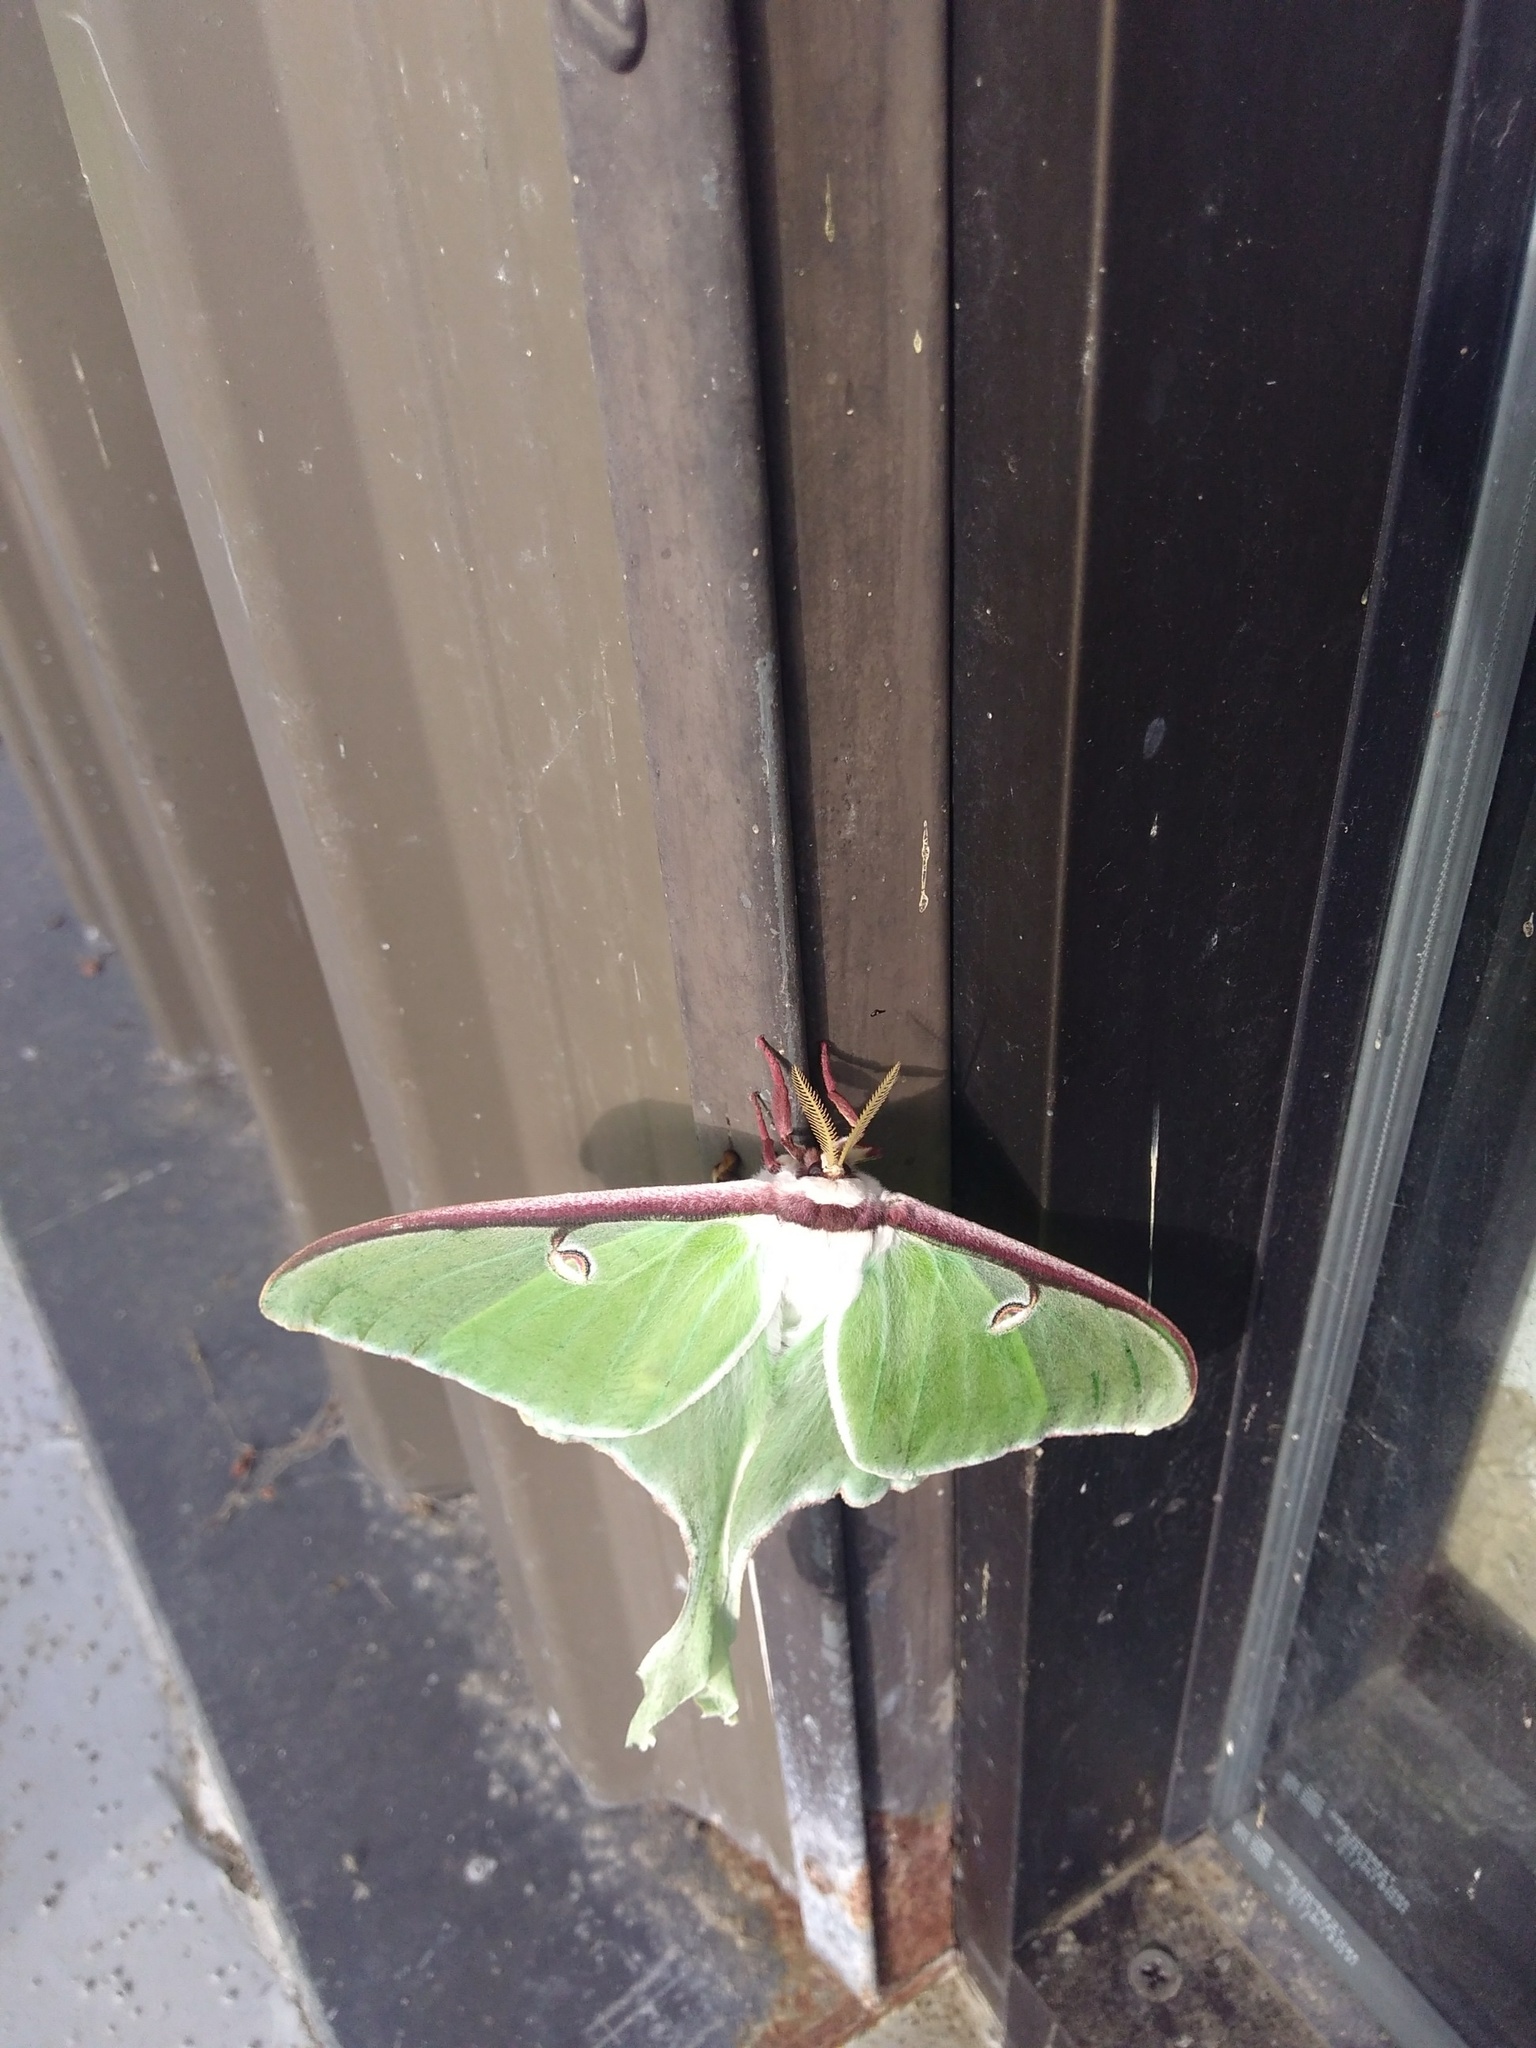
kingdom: Animalia
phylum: Arthropoda
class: Insecta
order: Lepidoptera
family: Saturniidae
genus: Actias
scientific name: Actias luna
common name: Luna moth
